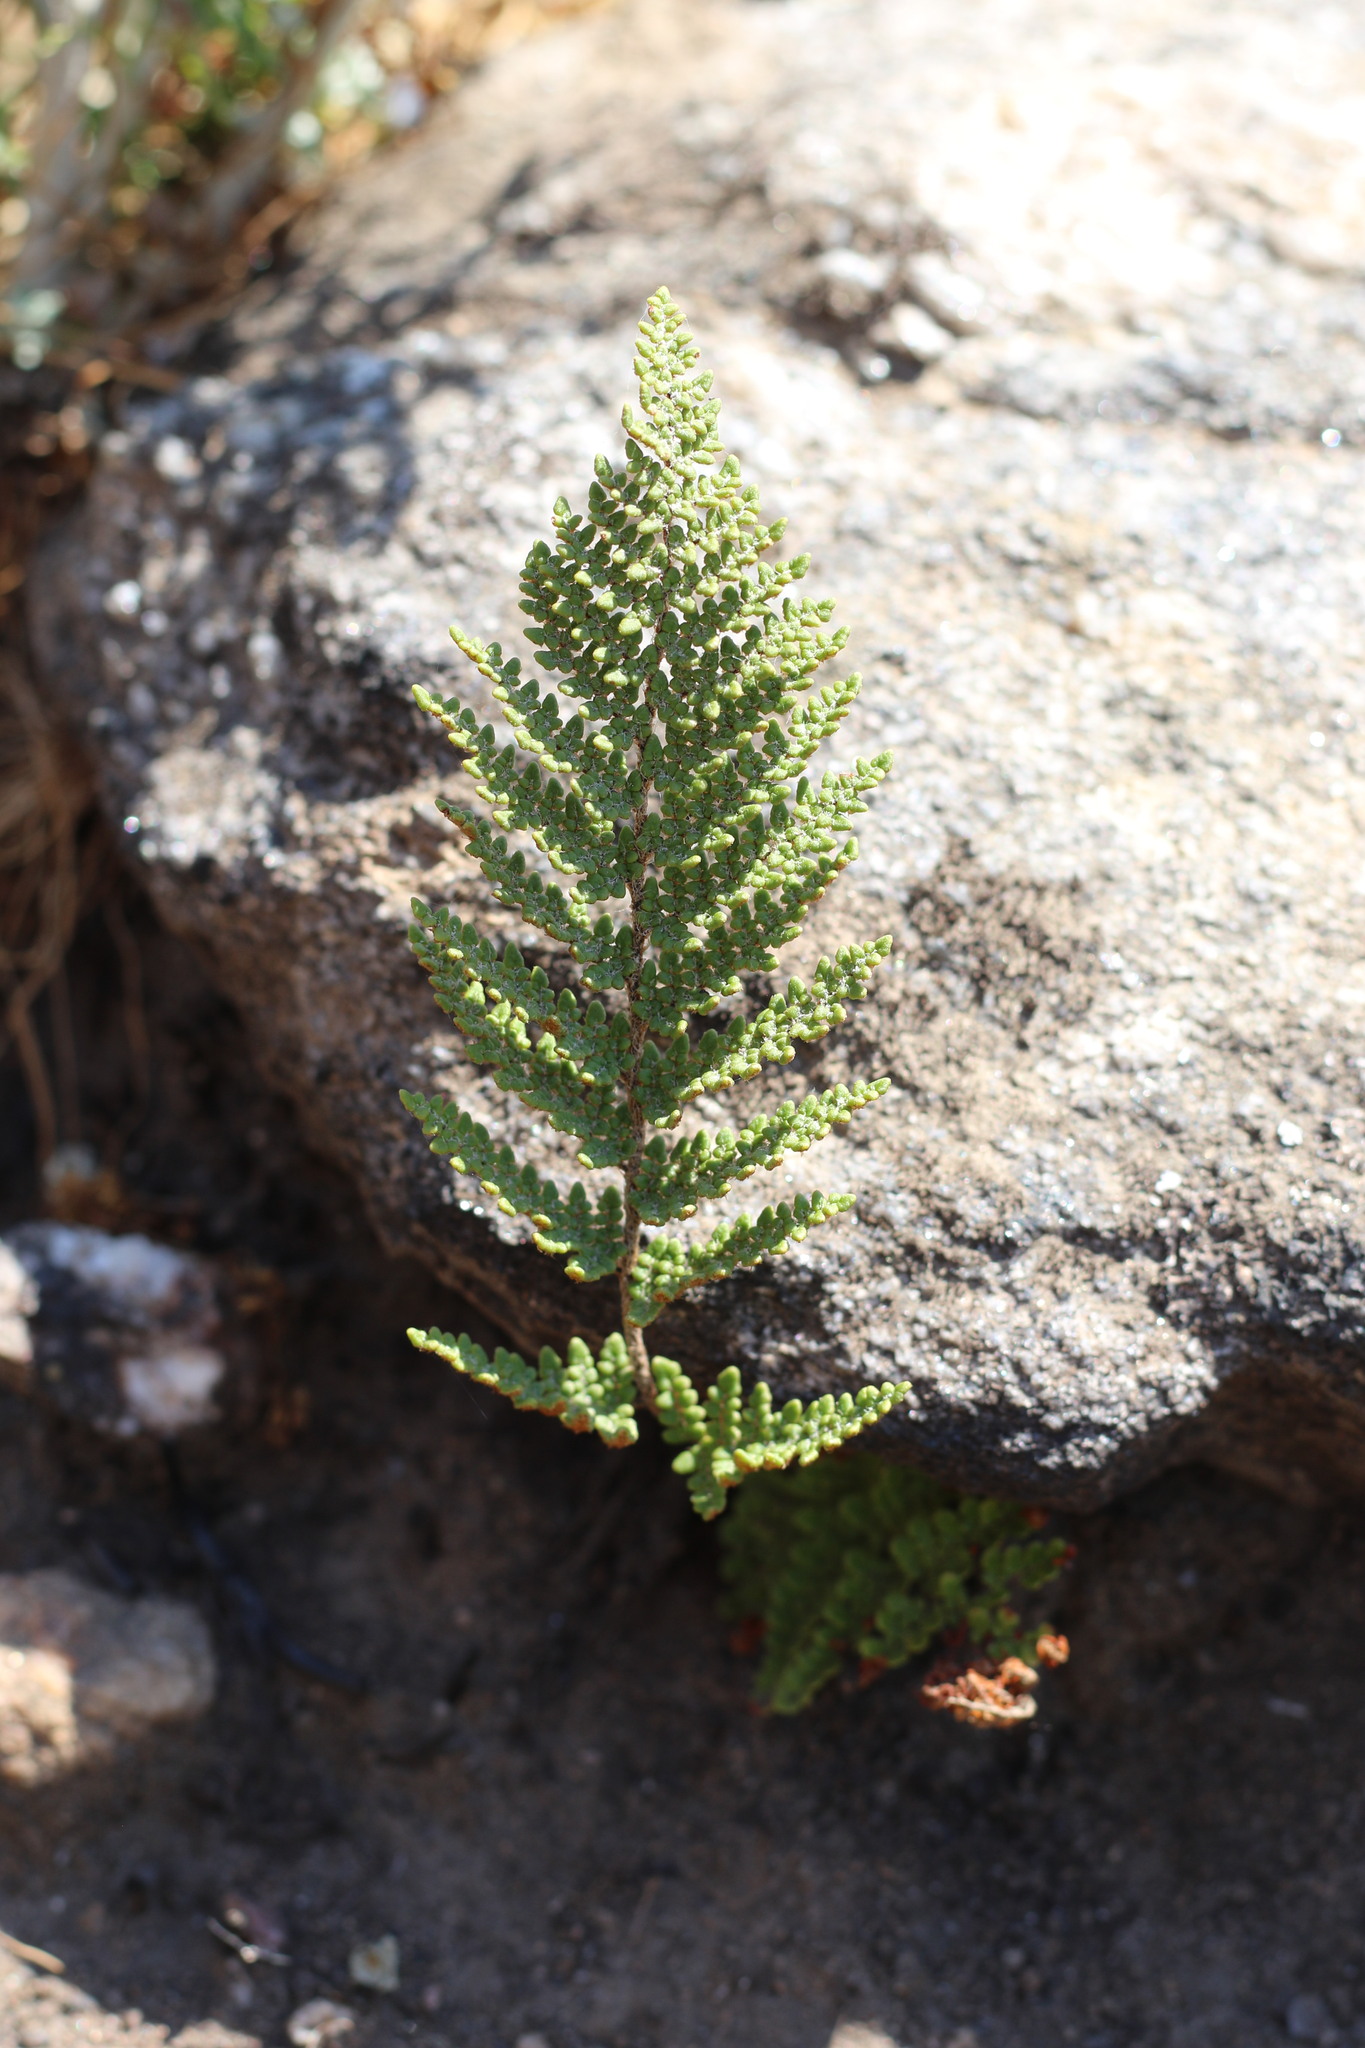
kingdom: Plantae
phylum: Tracheophyta
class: Polypodiopsida
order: Polypodiales
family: Pteridaceae
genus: Myriopteris
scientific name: Myriopteris clevelandii
